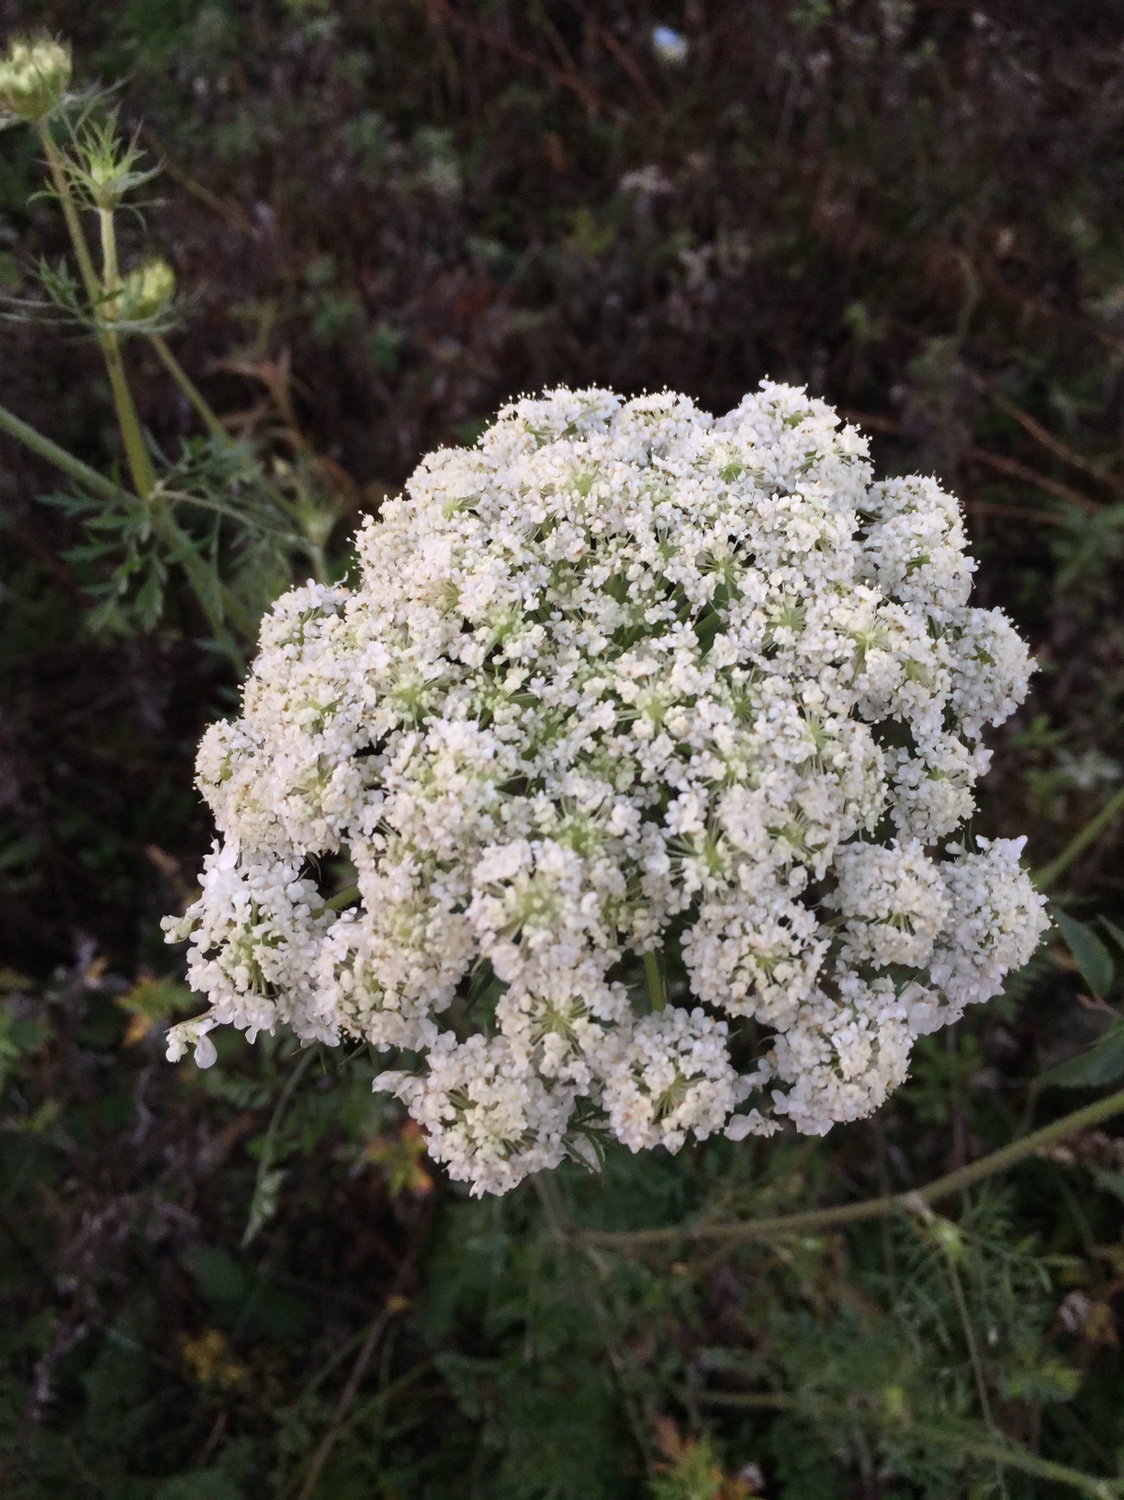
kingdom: Plantae
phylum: Tracheophyta
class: Magnoliopsida
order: Apiales
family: Apiaceae
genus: Daucus
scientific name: Daucus carota
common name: Wild carrot
